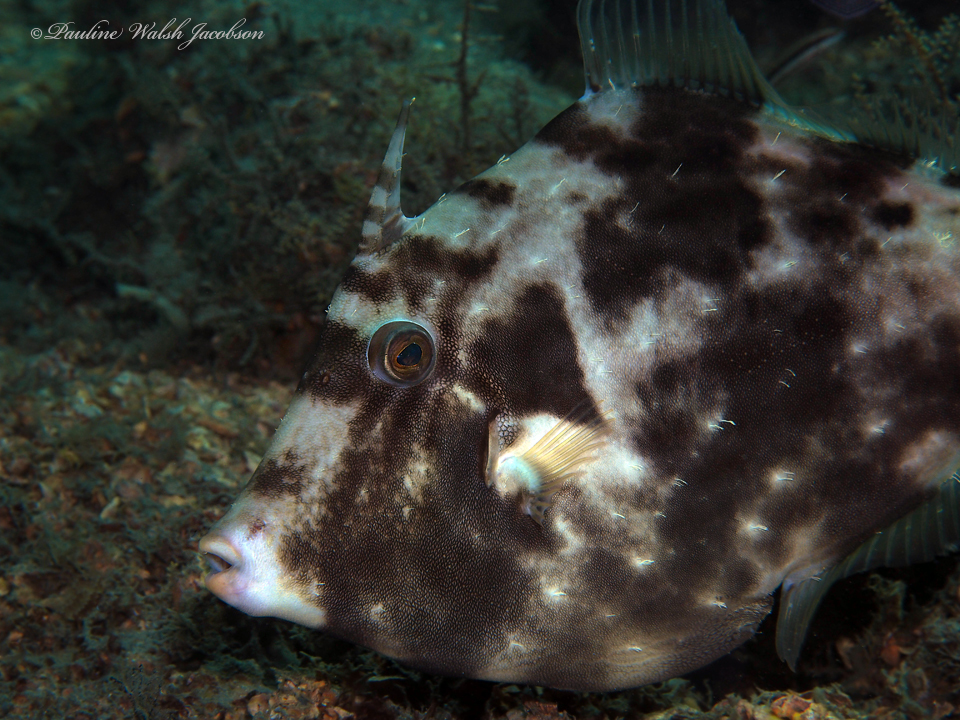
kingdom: Animalia
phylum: Chordata
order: Tetraodontiformes
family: Monacanthidae
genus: Stephanolepis
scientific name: Stephanolepis hispidus
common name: Planehead filefish
